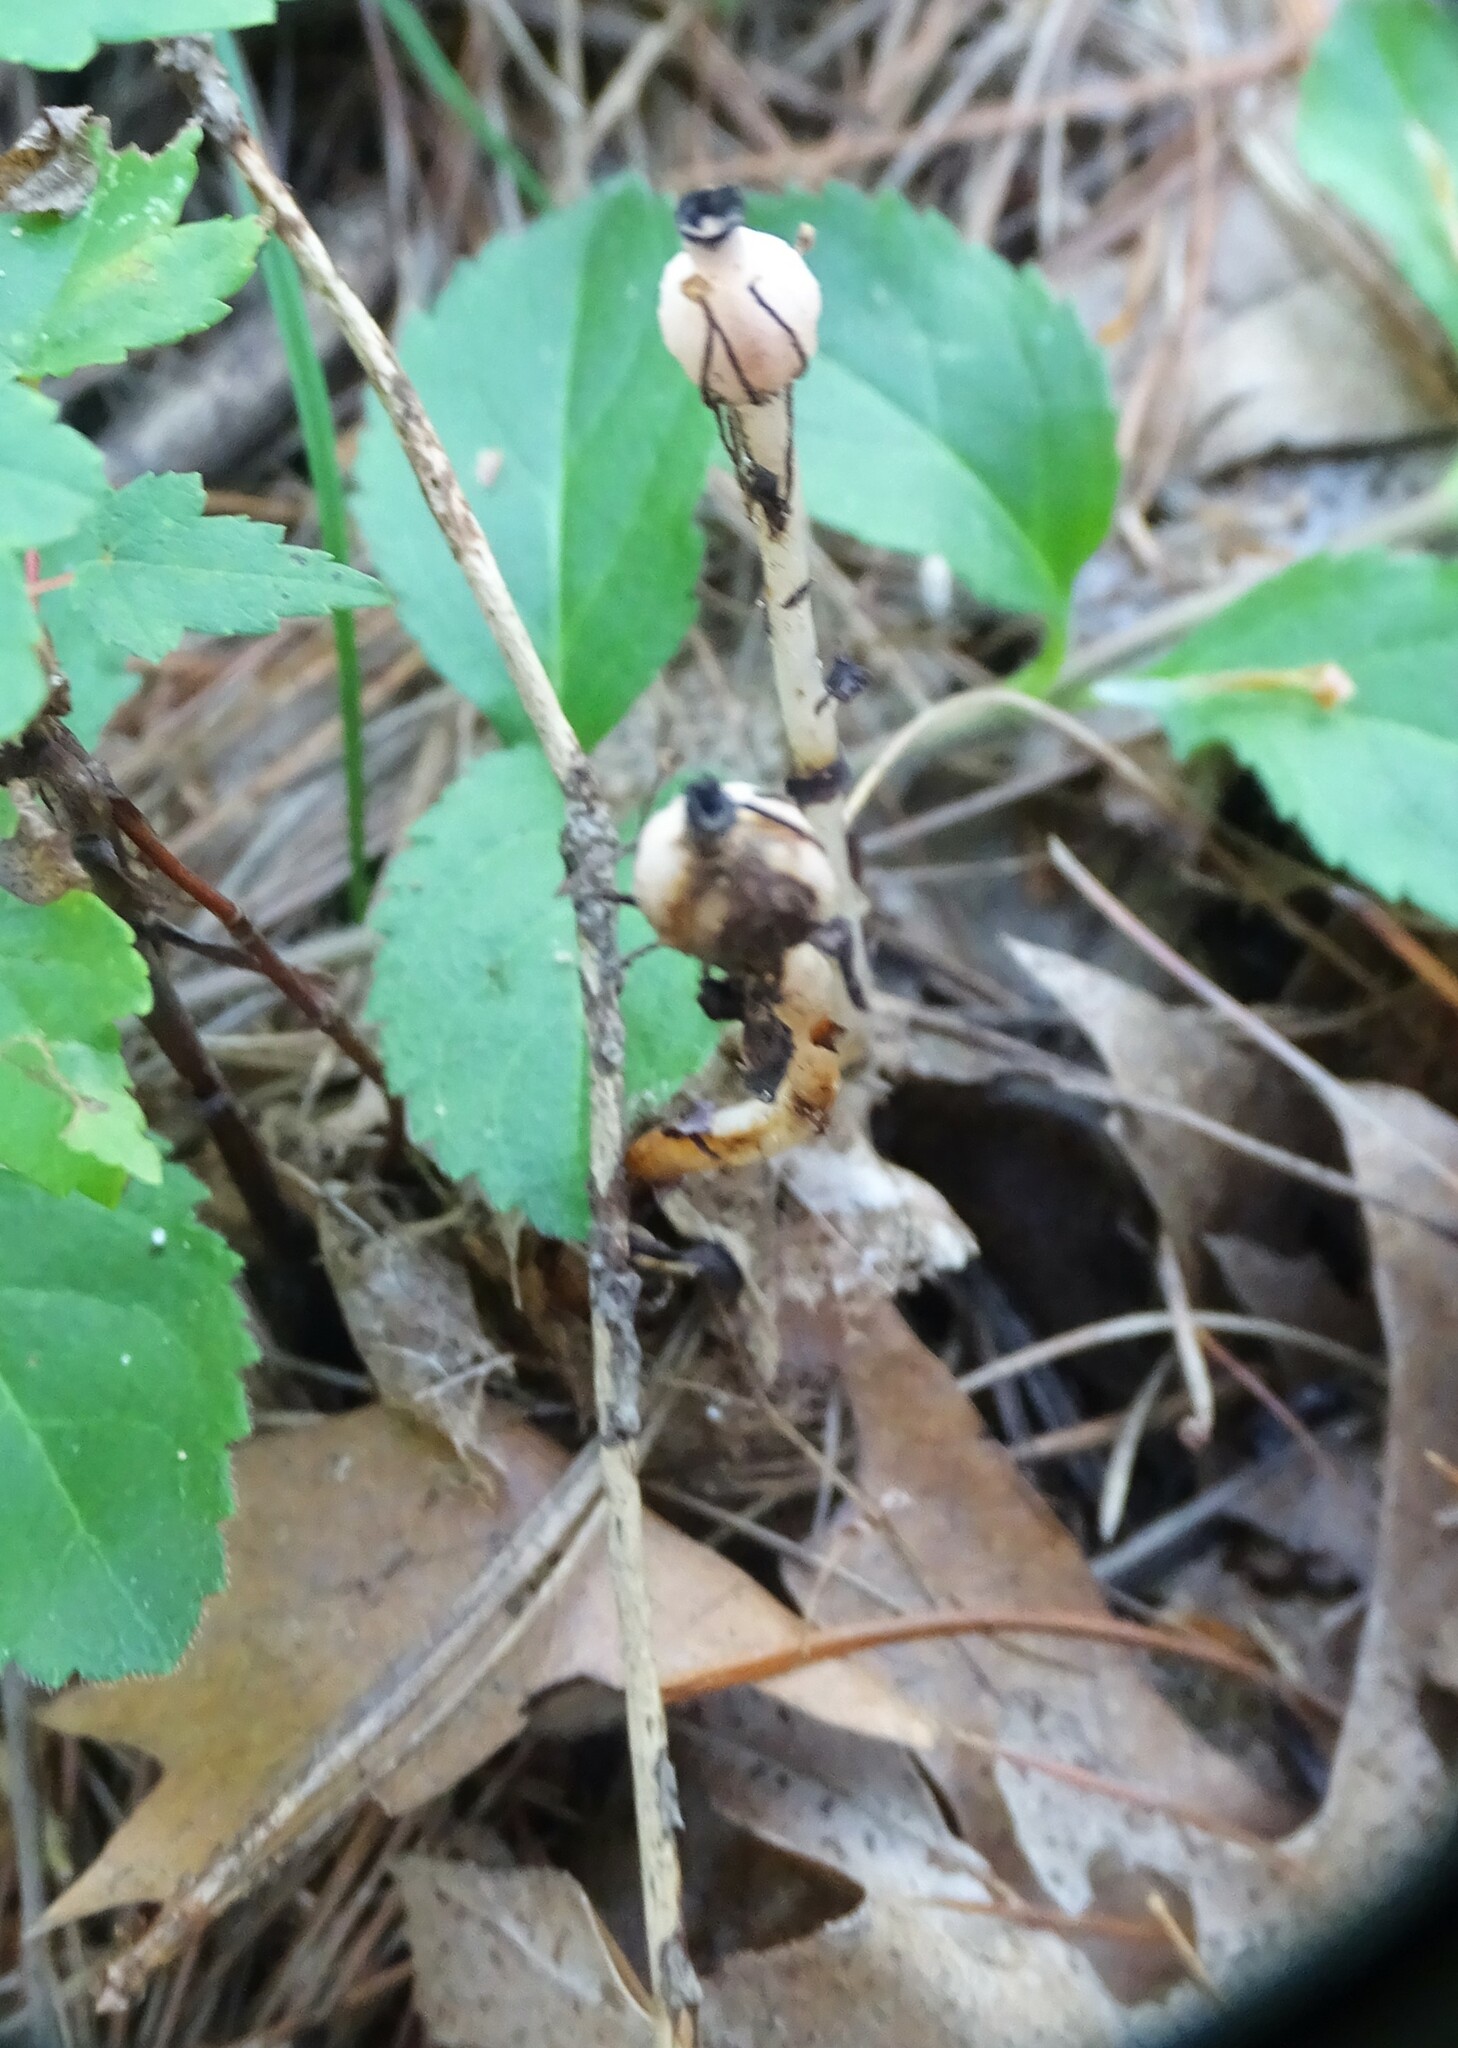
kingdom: Plantae
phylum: Tracheophyta
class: Magnoliopsida
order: Ericales
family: Ericaceae
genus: Monotropa
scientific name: Monotropa uniflora
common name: Convulsion root
